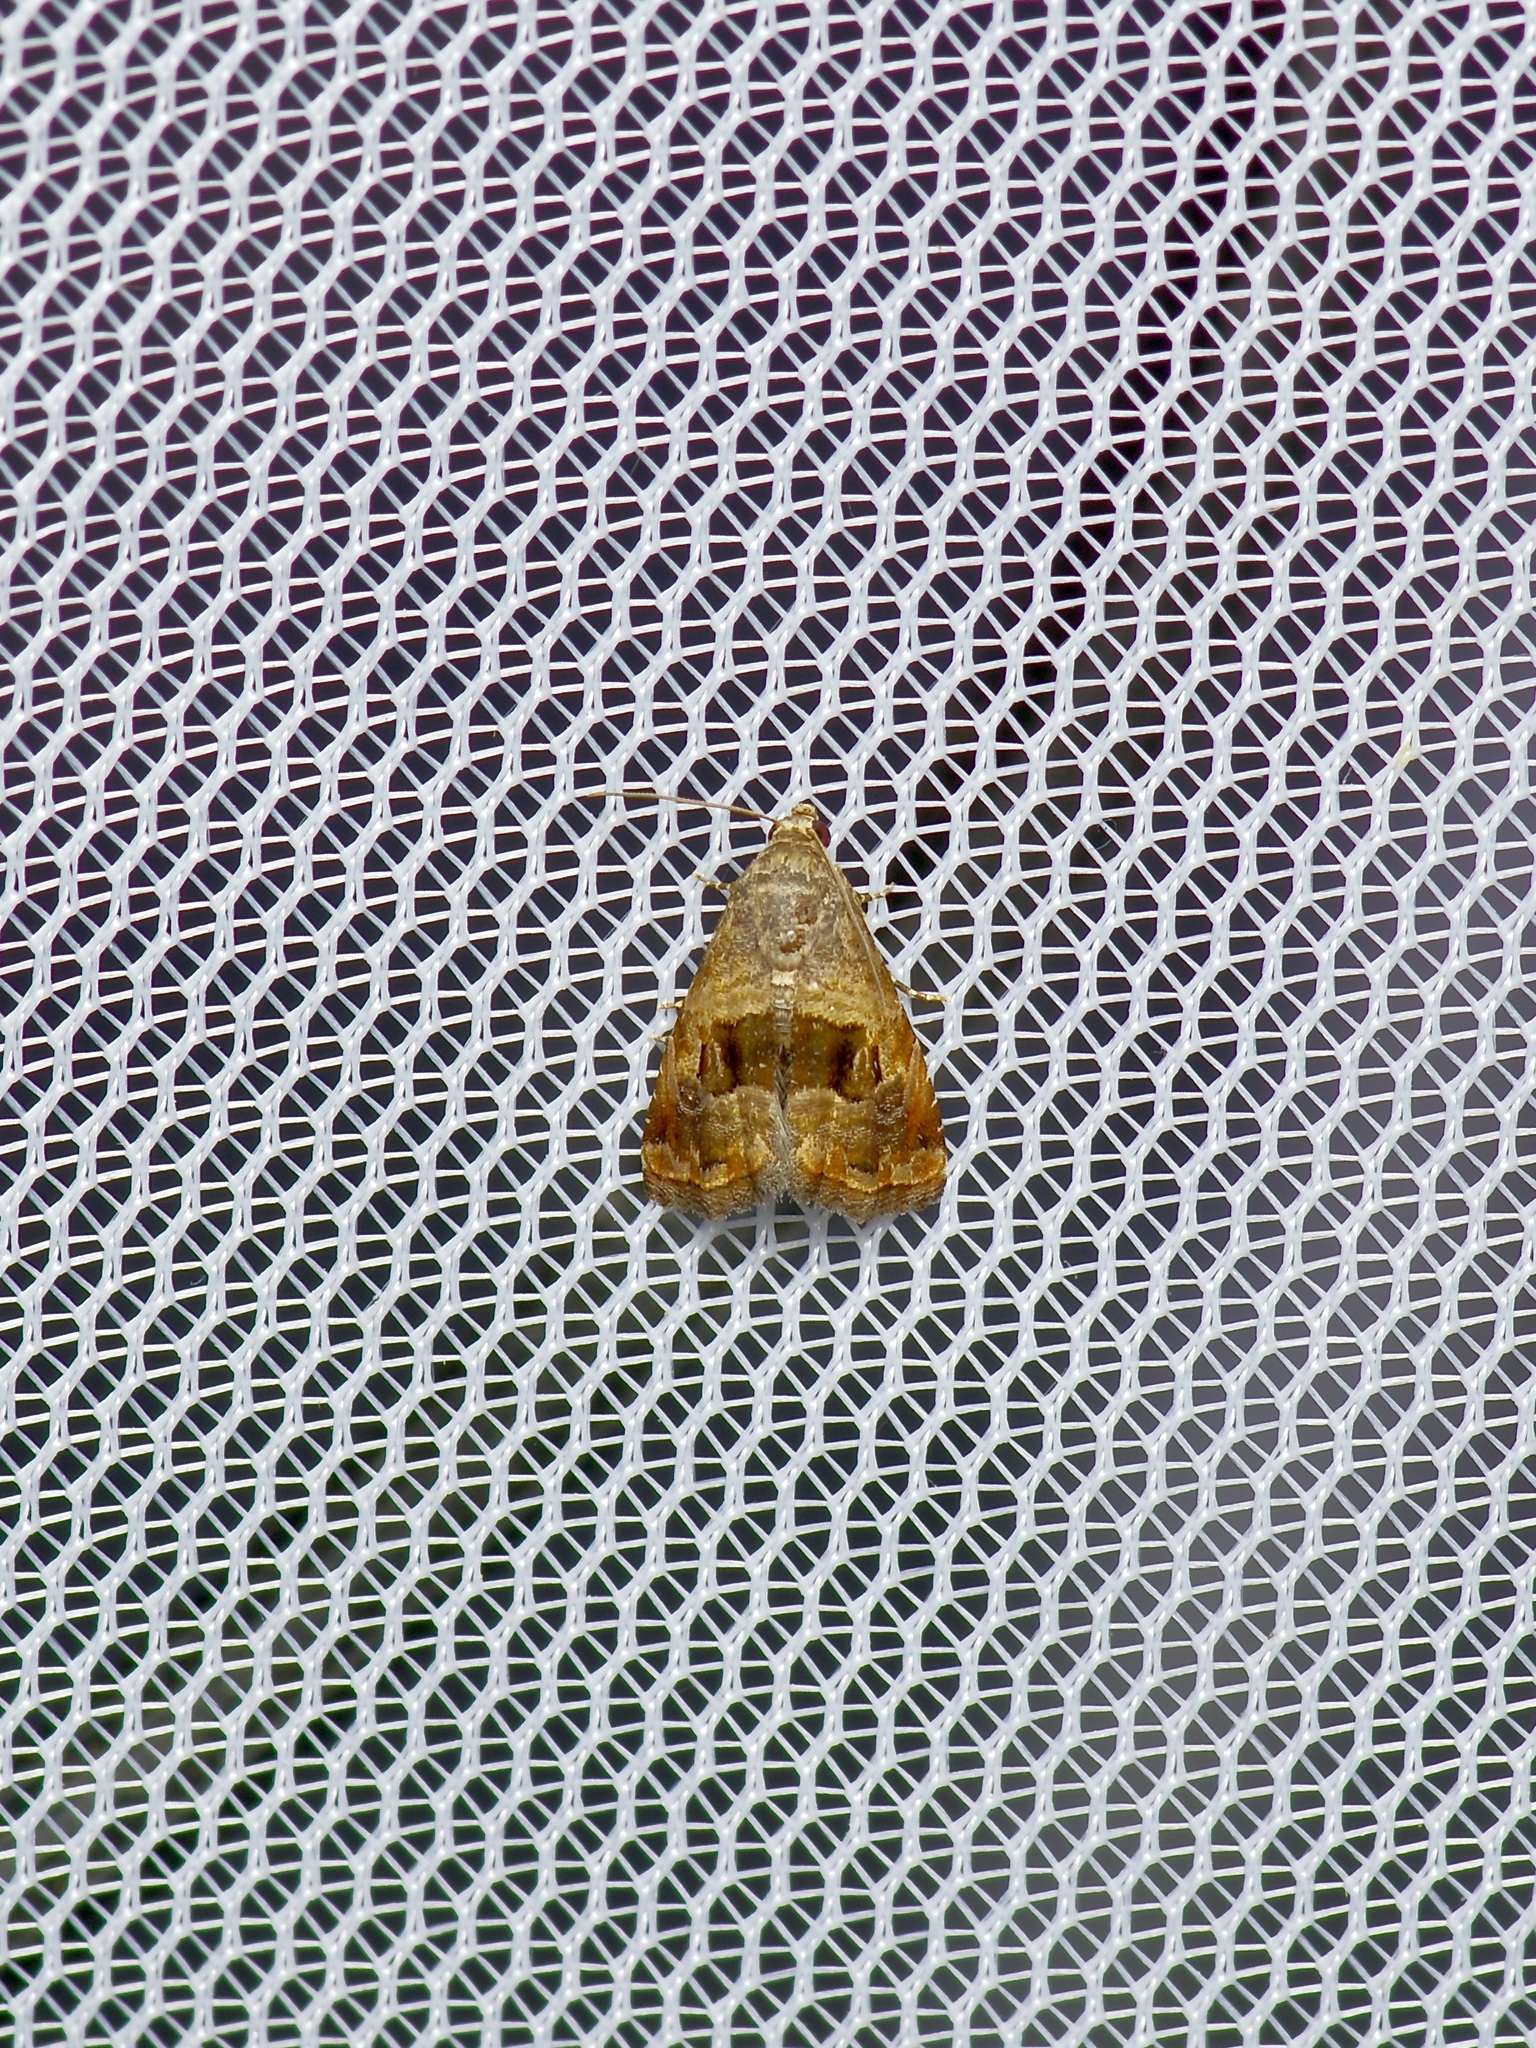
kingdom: Animalia
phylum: Arthropoda
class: Insecta
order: Lepidoptera
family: Noctuidae
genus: Tripudia
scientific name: Tripudia quadrifera
